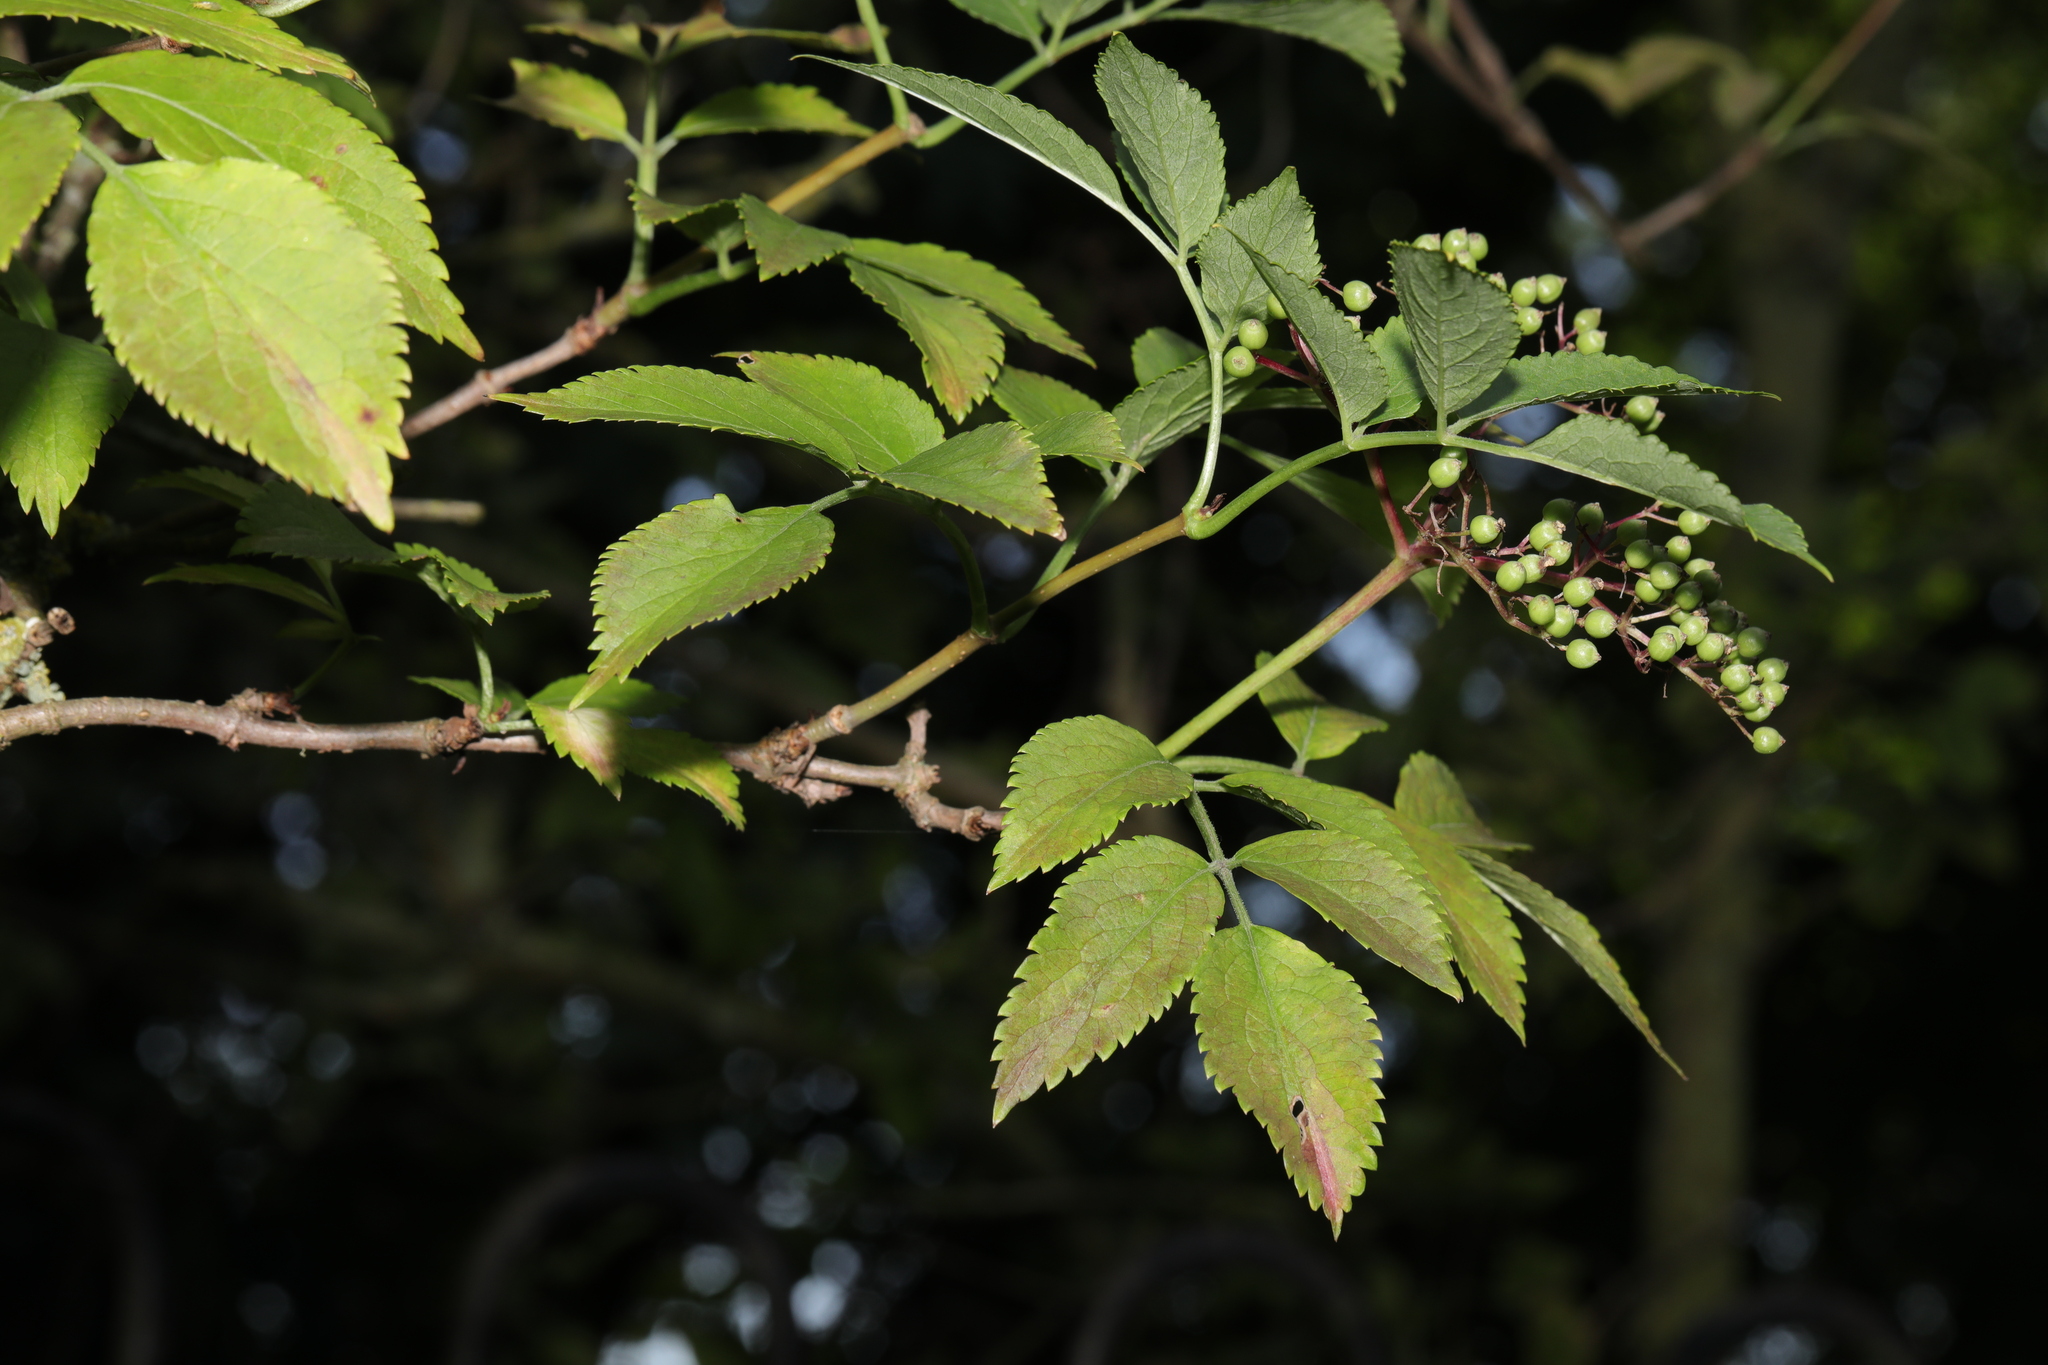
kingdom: Plantae
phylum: Tracheophyta
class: Magnoliopsida
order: Dipsacales
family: Viburnaceae
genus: Sambucus
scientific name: Sambucus nigra
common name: Elder
